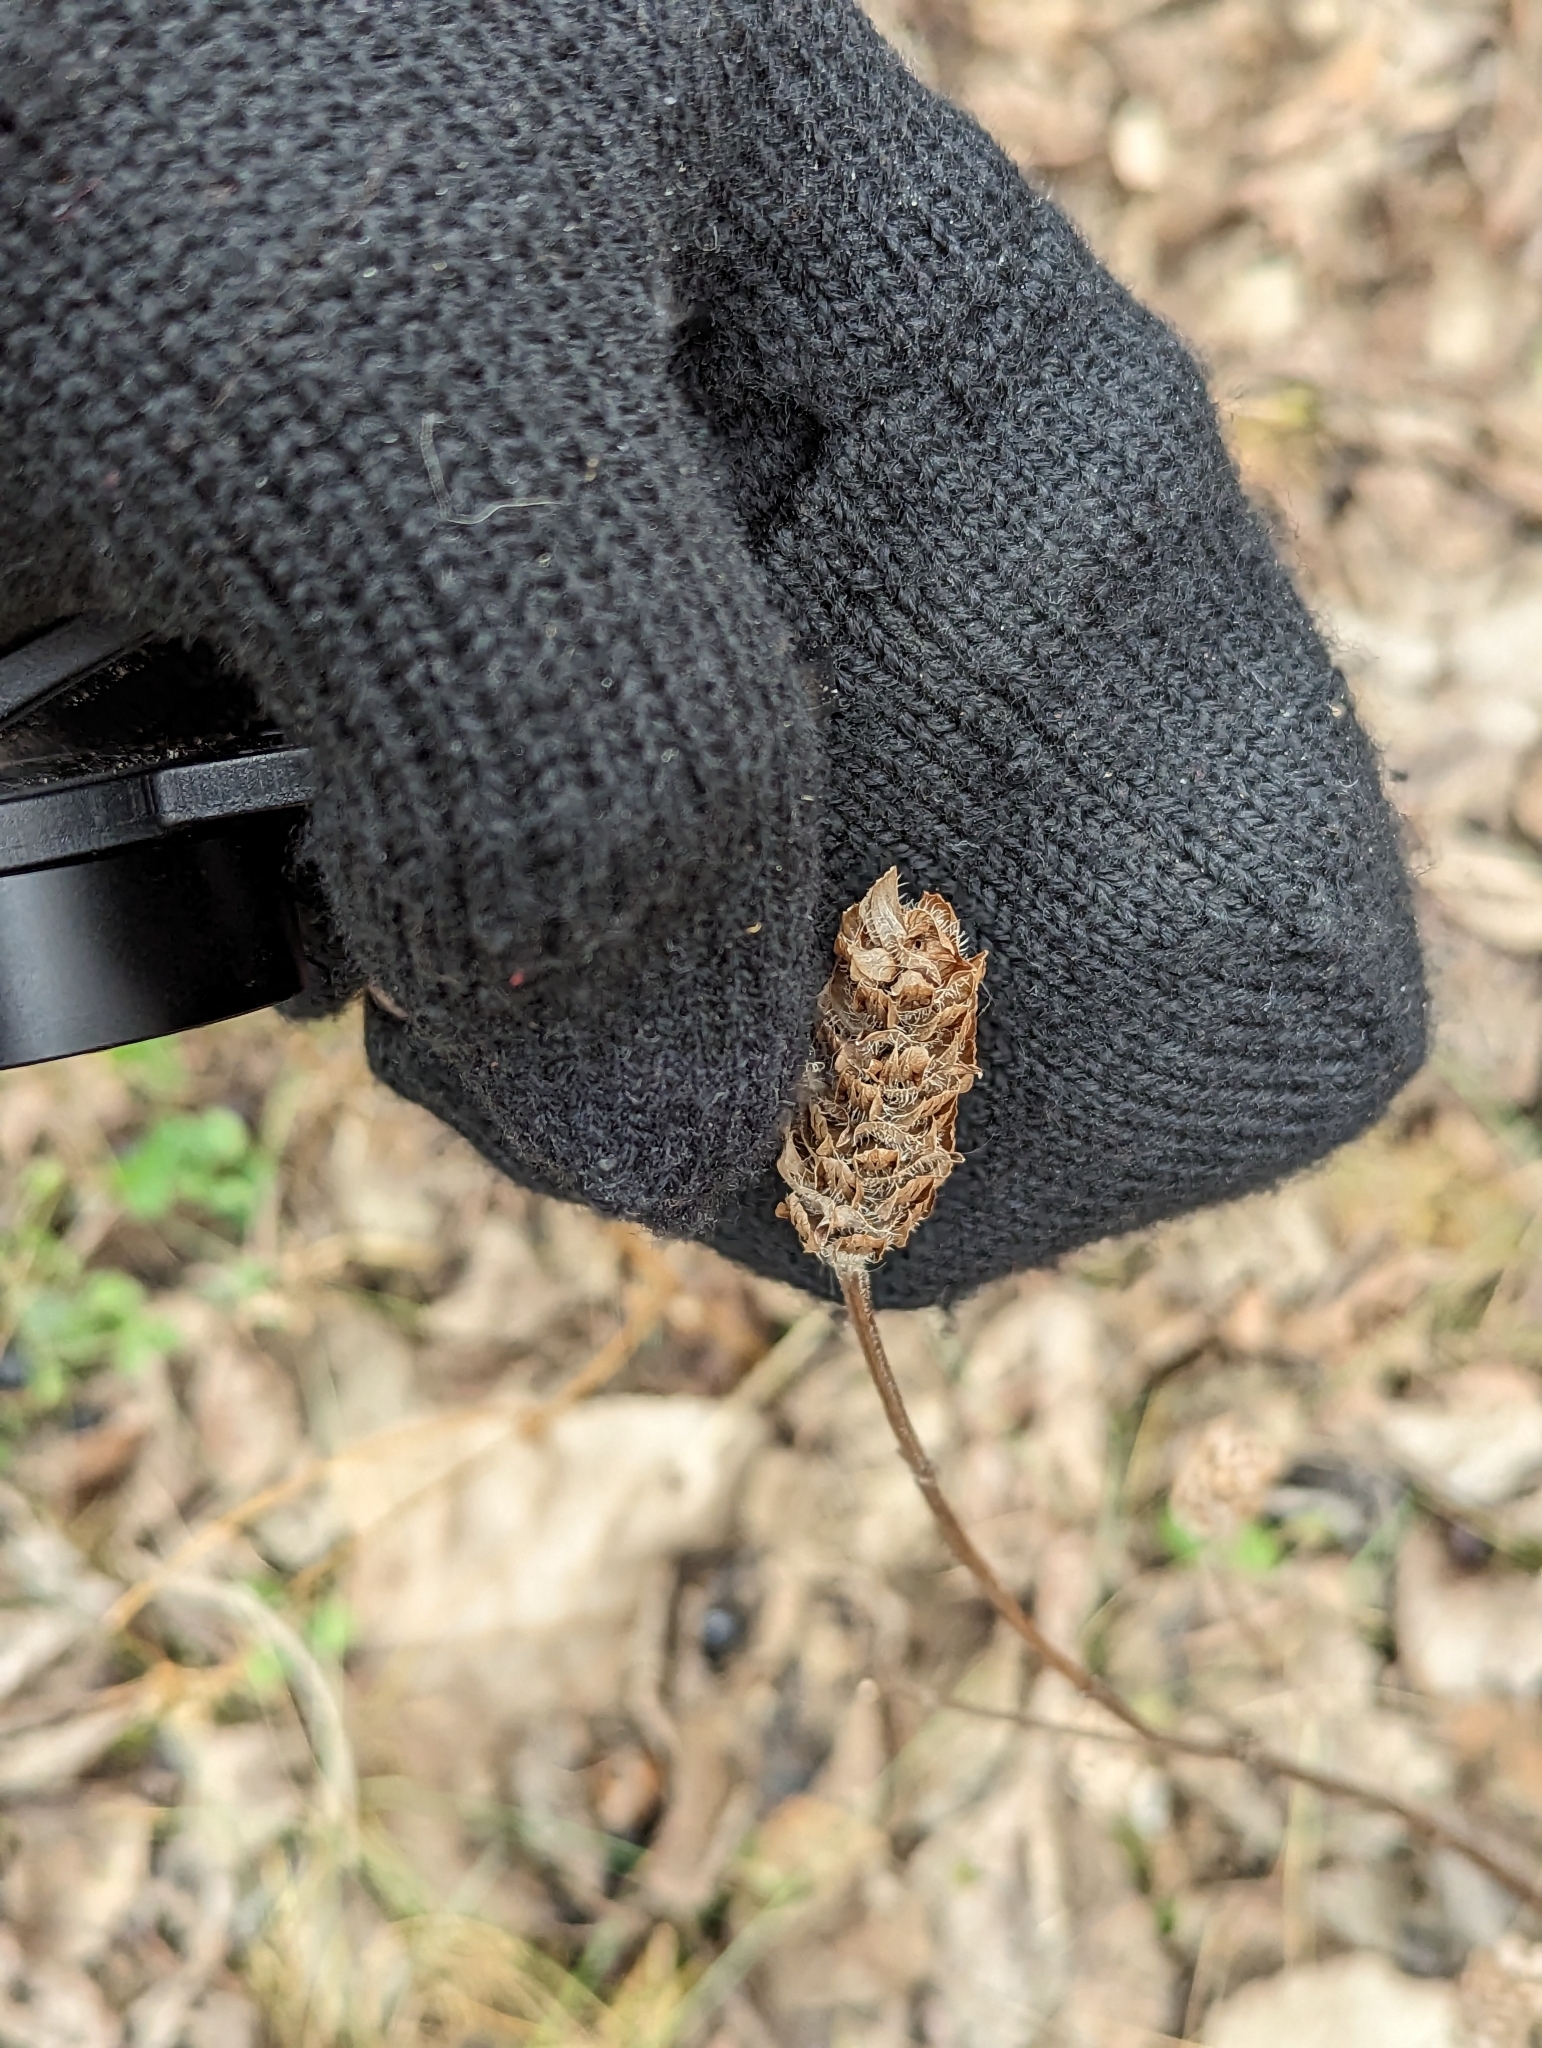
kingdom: Plantae
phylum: Tracheophyta
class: Magnoliopsida
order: Lamiales
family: Lamiaceae
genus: Prunella
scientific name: Prunella vulgaris
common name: Heal-all
